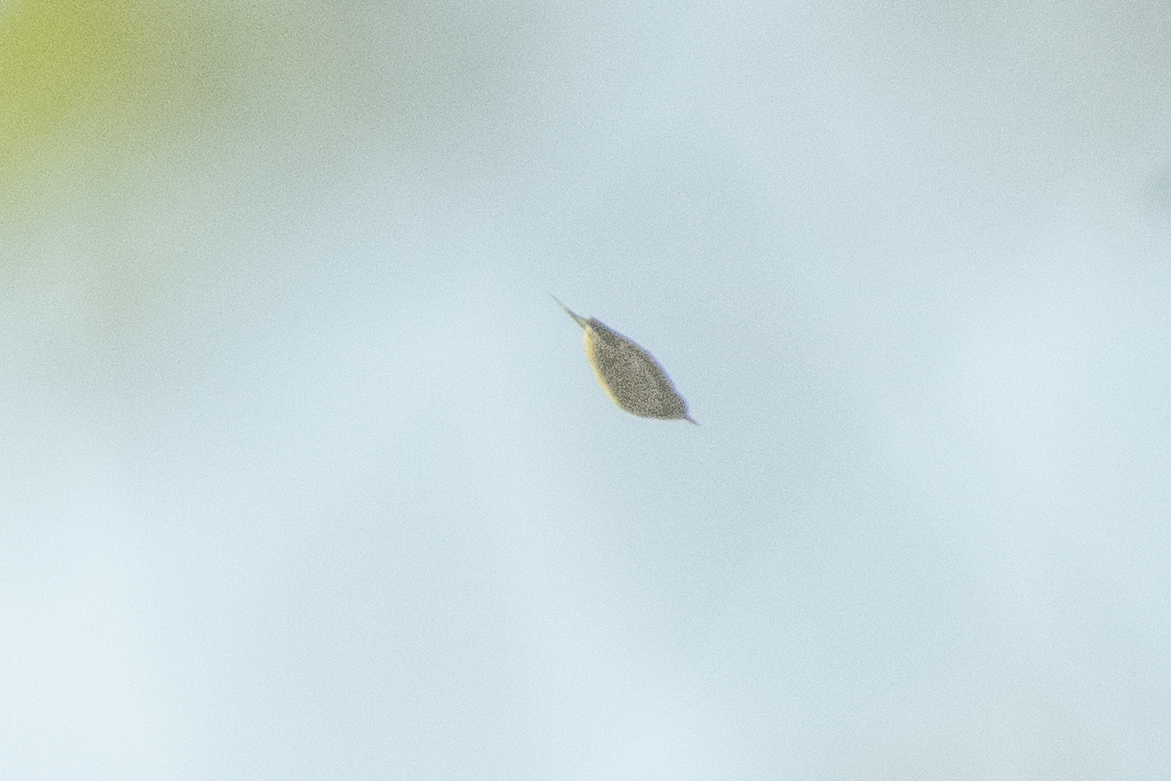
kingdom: Animalia
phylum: Chordata
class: Aves
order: Passeriformes
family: Sittidae
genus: Sitta
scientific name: Sitta europaea
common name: Eurasian nuthatch
